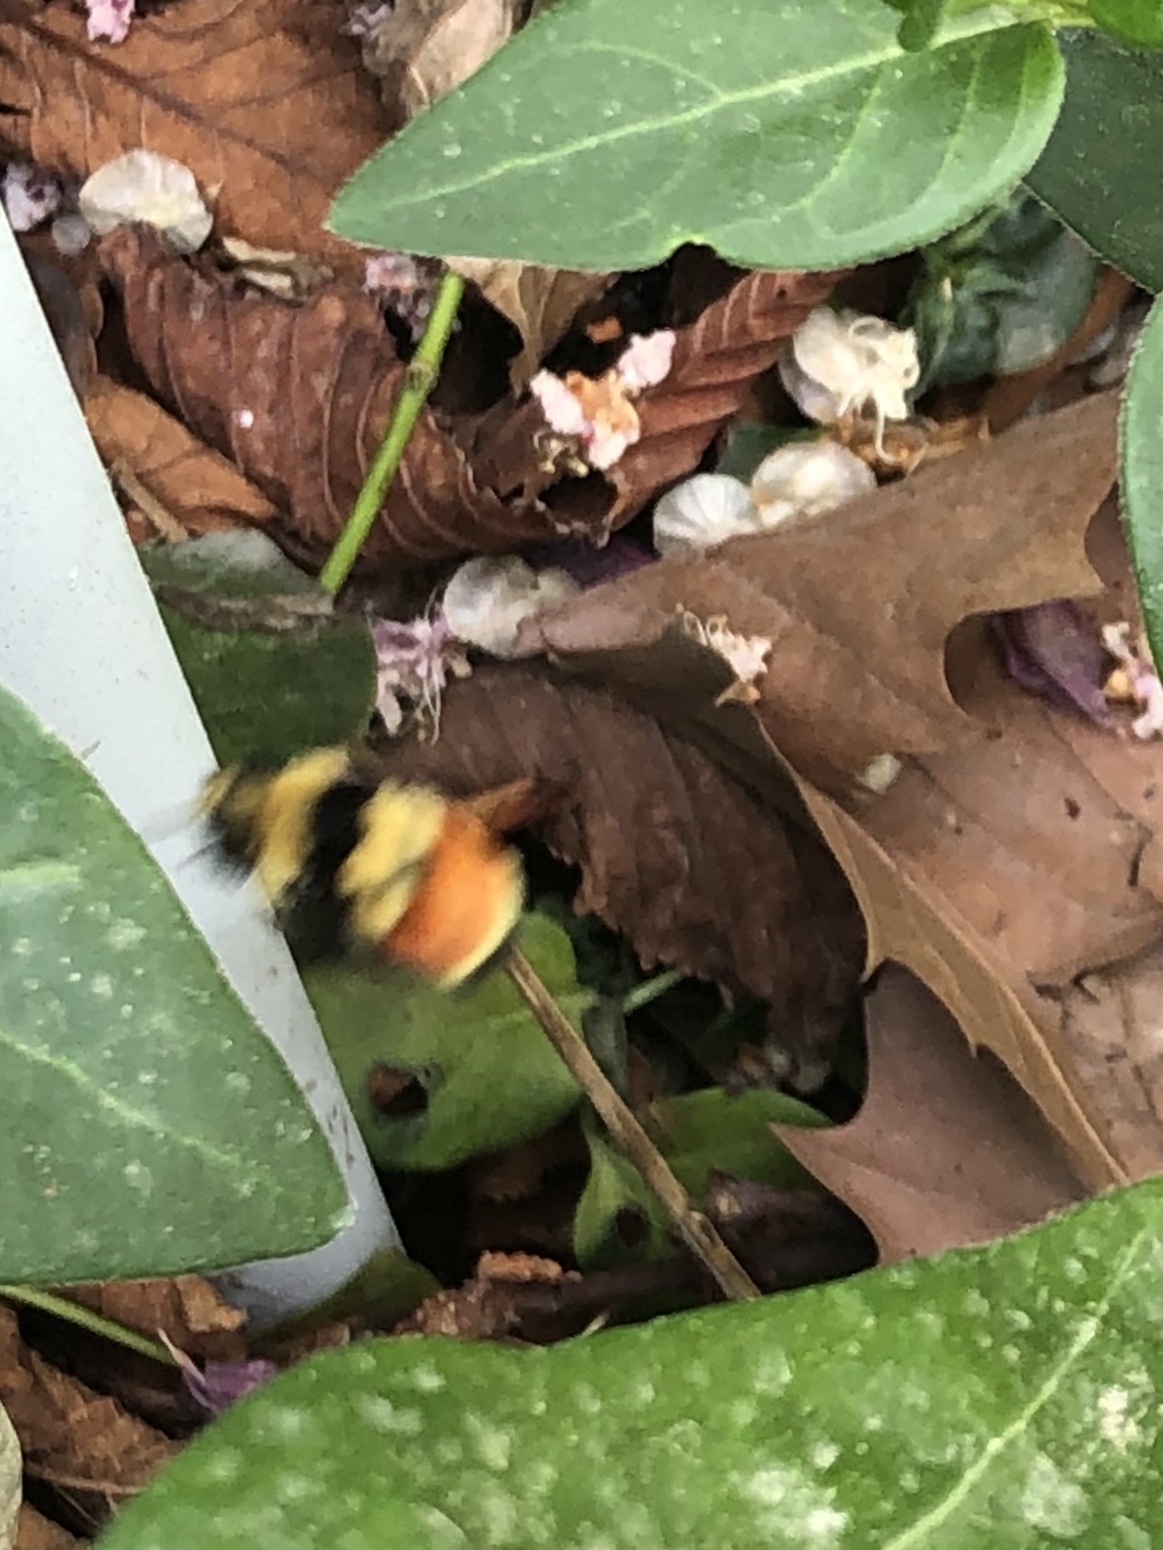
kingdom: Animalia
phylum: Arthropoda
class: Insecta
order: Hymenoptera
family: Apidae
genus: Bombus
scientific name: Bombus huntii
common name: Hunt bumble bee
